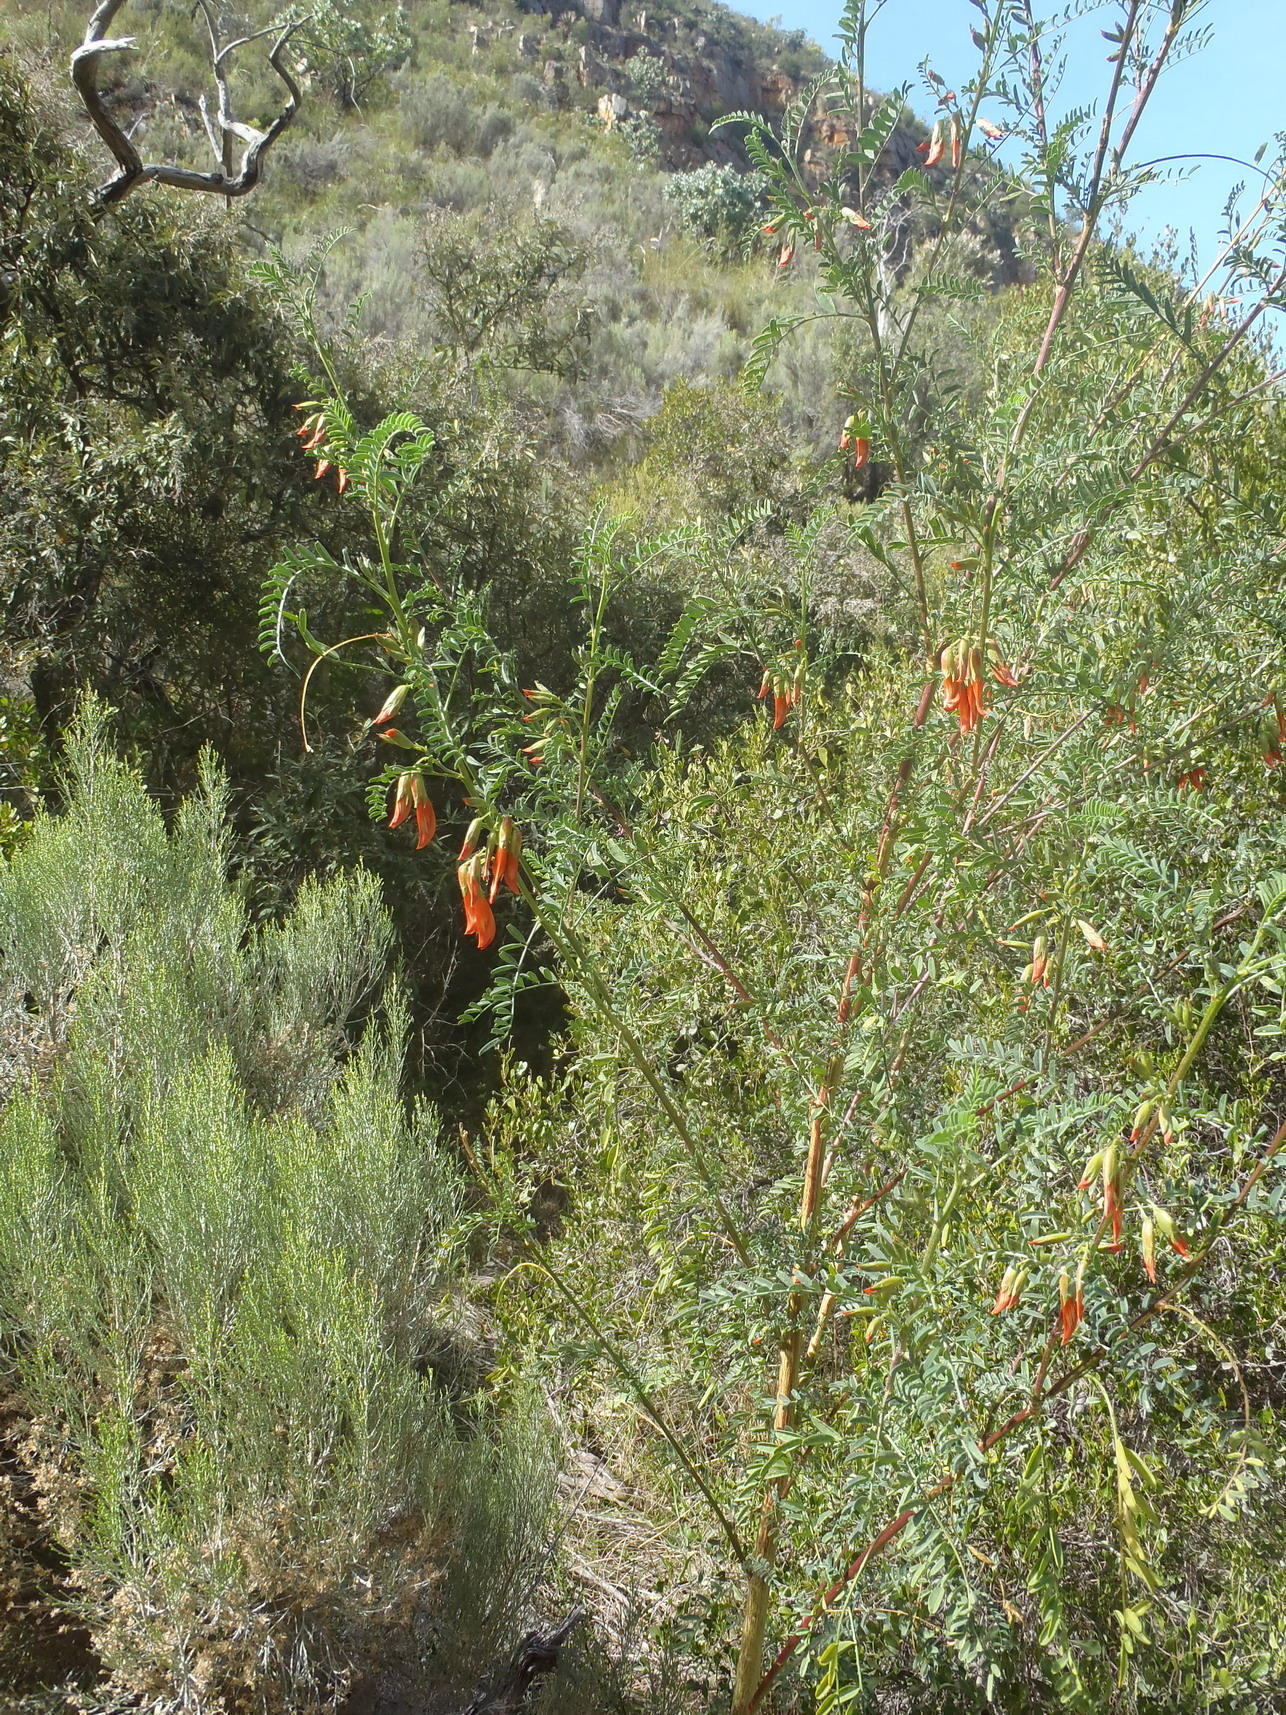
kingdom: Plantae
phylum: Tracheophyta
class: Magnoliopsida
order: Fabales
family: Fabaceae
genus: Lessertia
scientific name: Lessertia frutescens
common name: Balloon-pea
